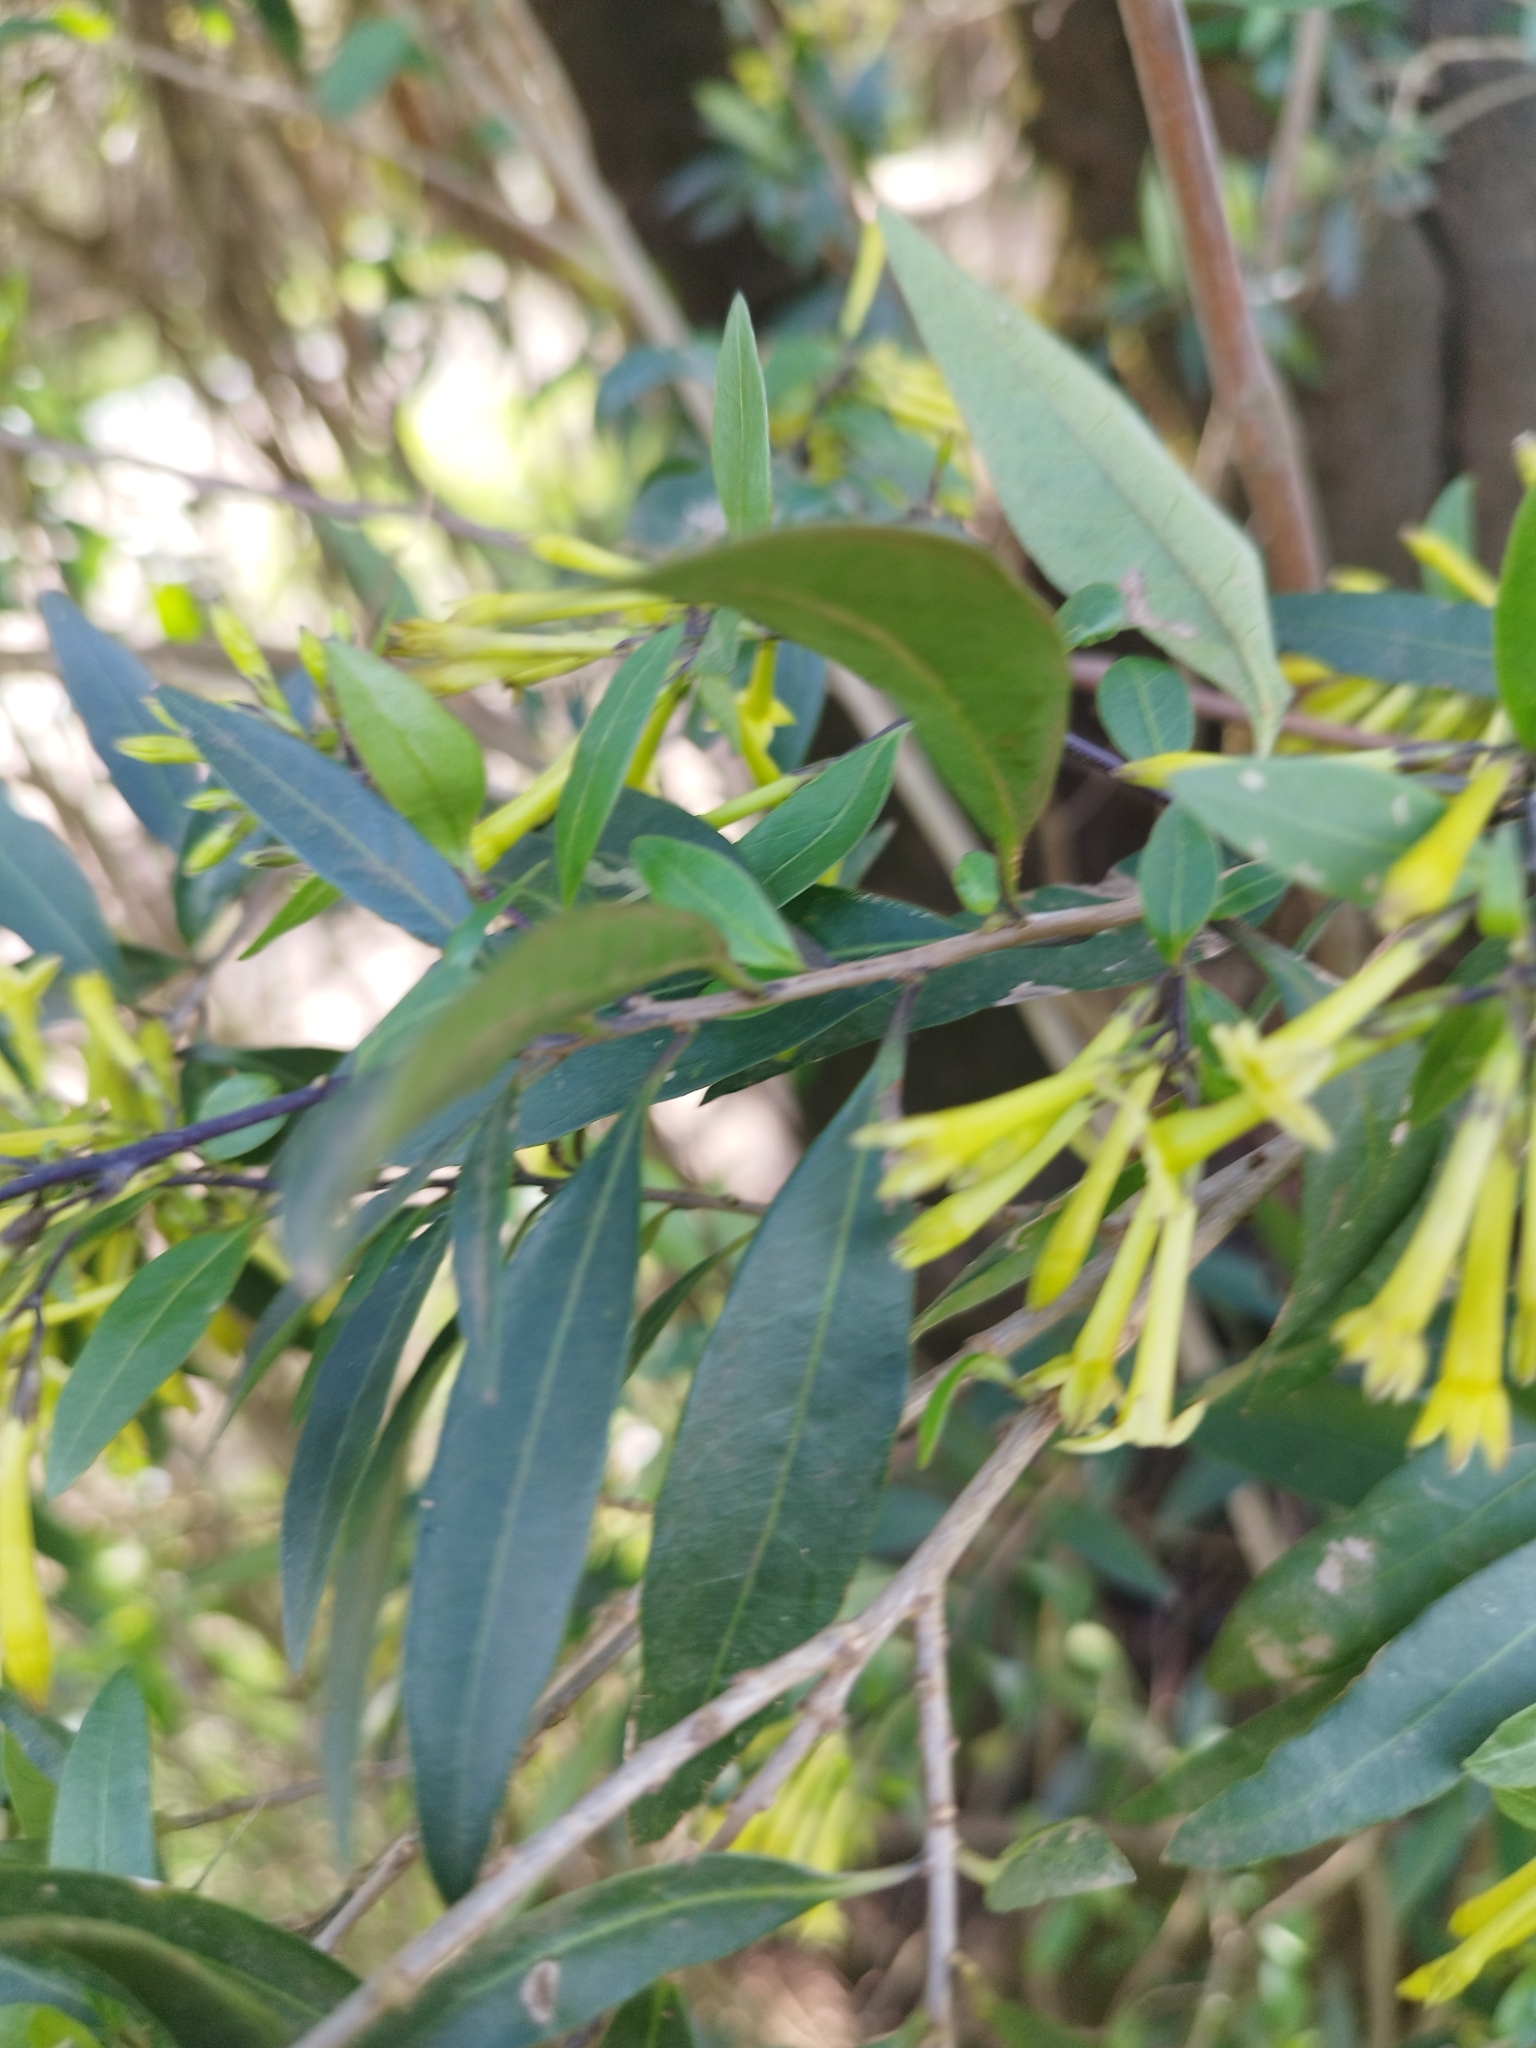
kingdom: Plantae
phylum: Tracheophyta
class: Magnoliopsida
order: Solanales
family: Solanaceae
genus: Cestrum
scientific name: Cestrum parqui
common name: Chilean cestrum
